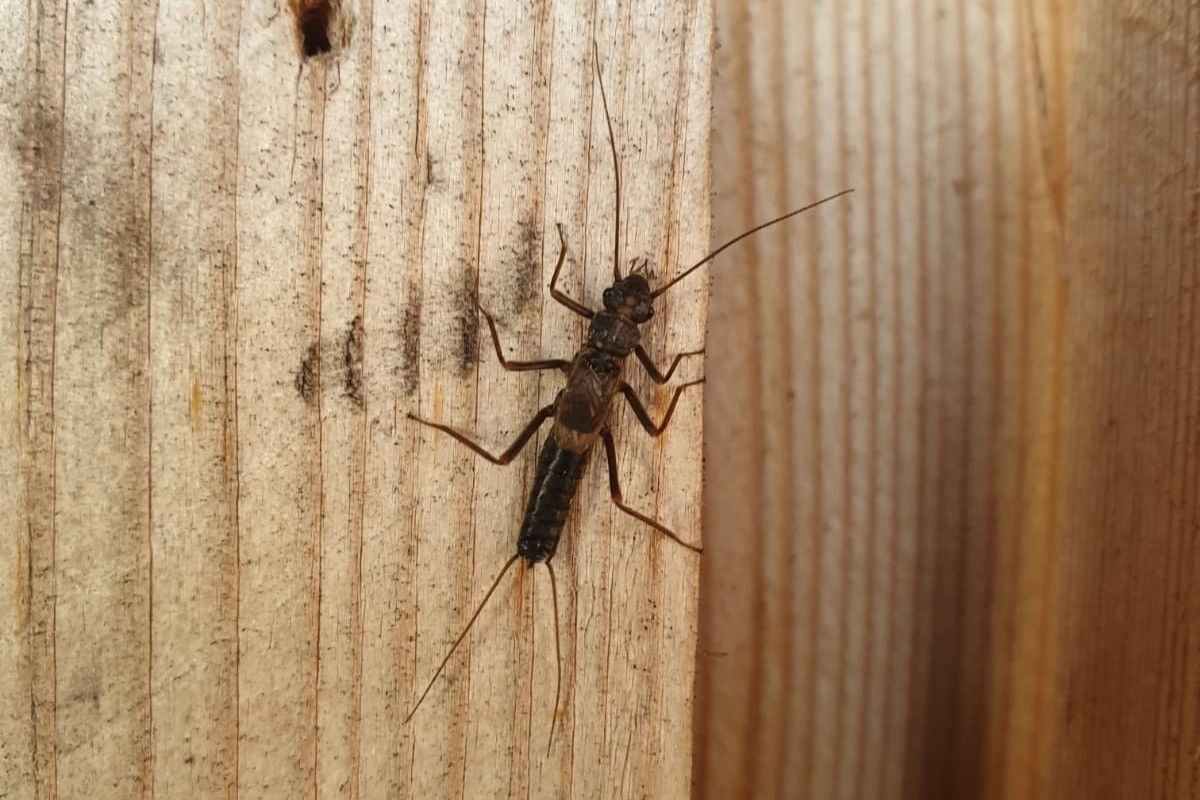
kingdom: Animalia
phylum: Arthropoda
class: Insecta
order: Plecoptera
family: Perlodidae
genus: Diura
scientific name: Diura bicaudata
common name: Lapland springfly
